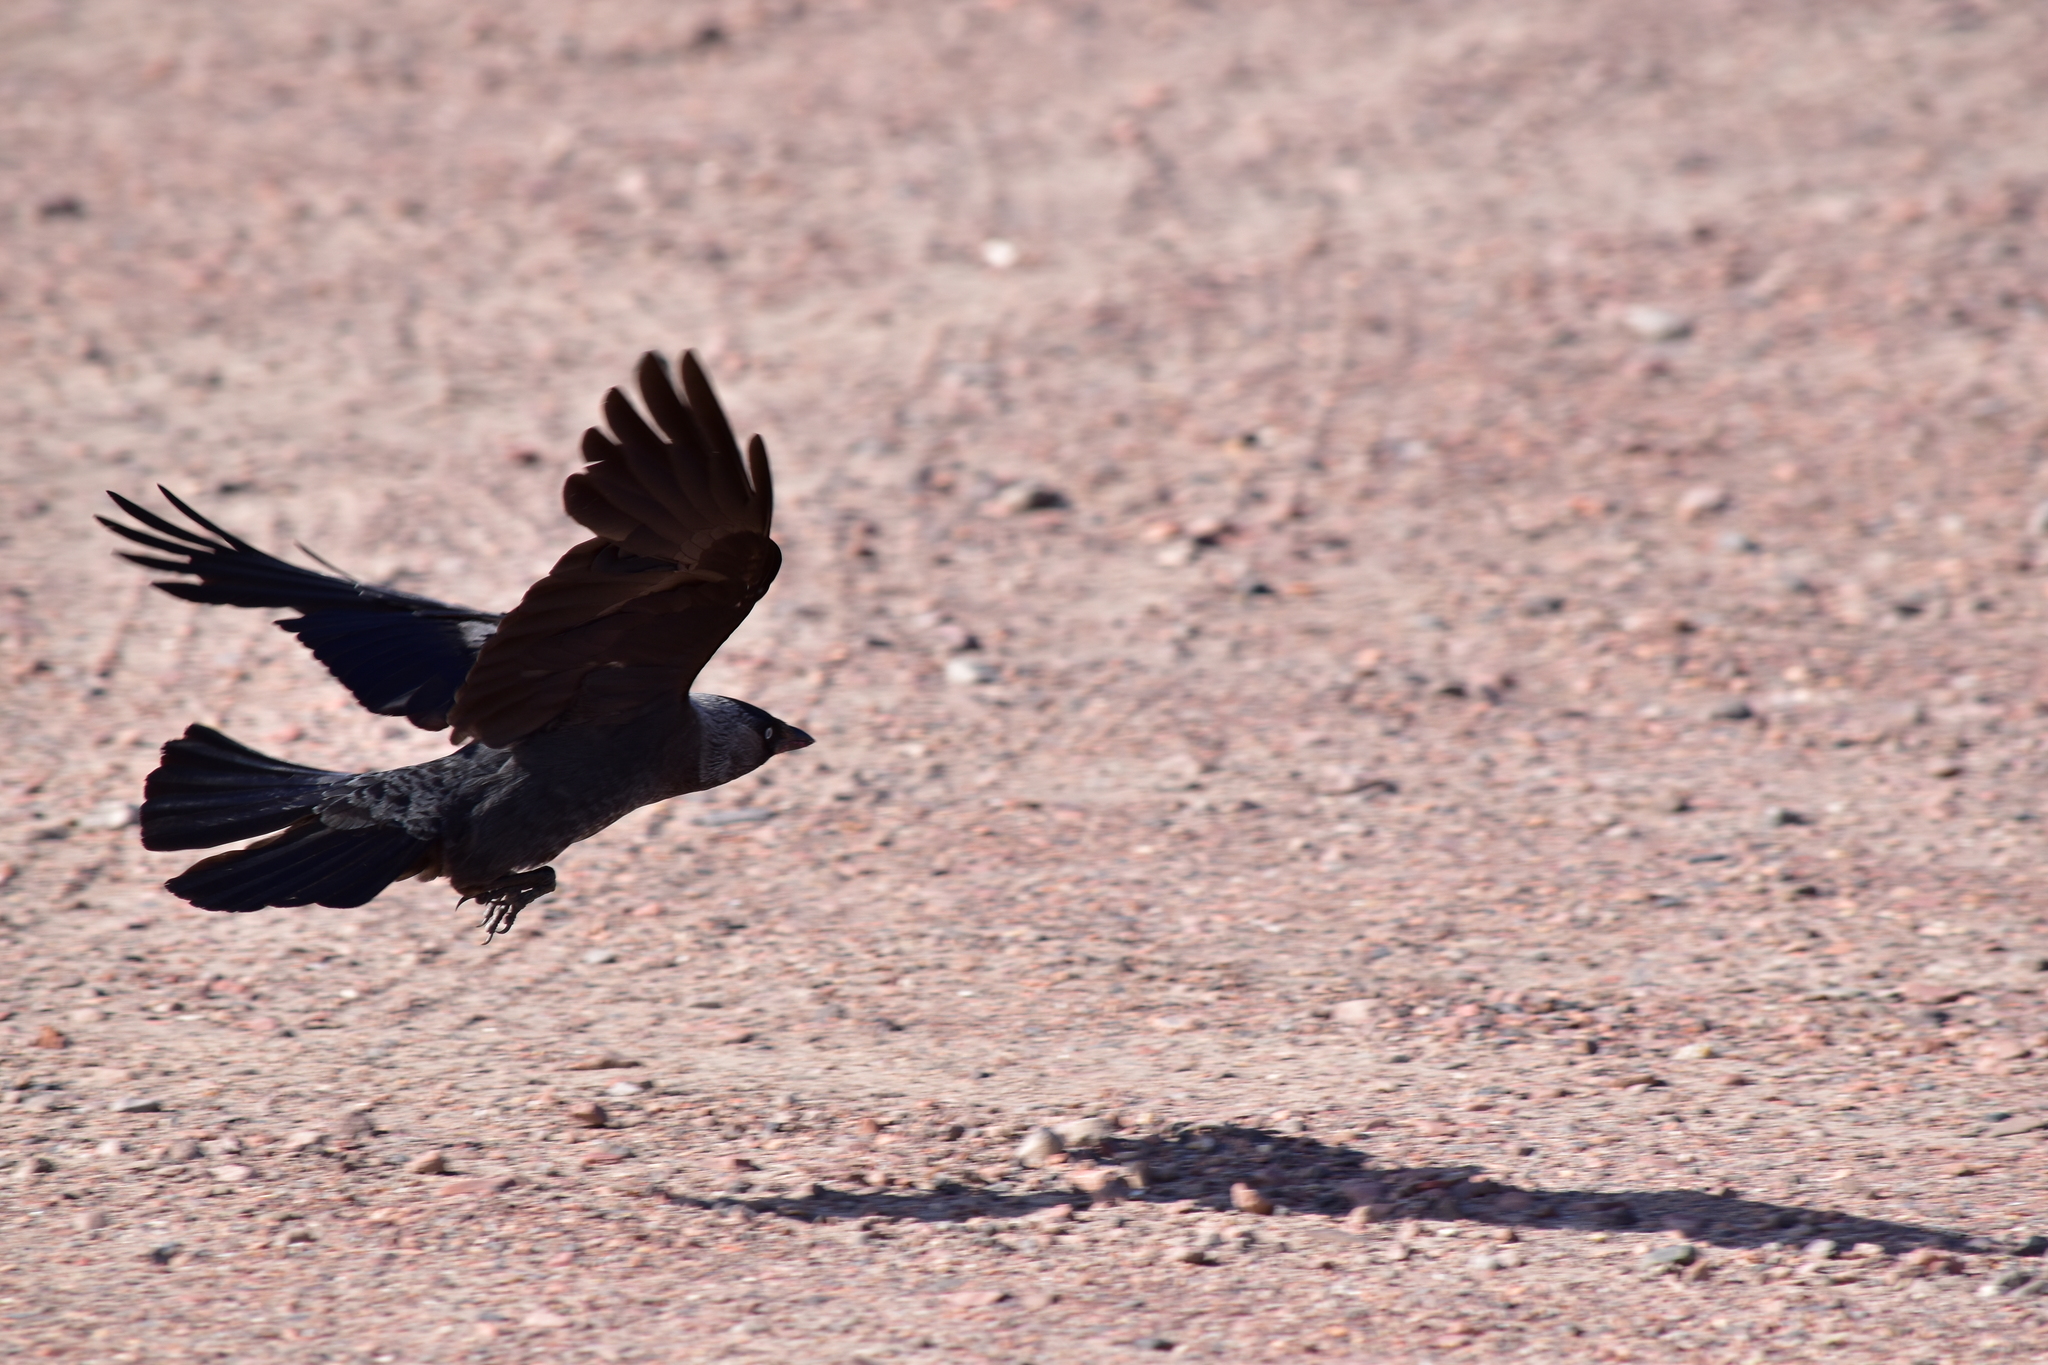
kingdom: Animalia
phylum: Chordata
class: Aves
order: Passeriformes
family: Corvidae
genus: Coloeus
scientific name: Coloeus monedula
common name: Western jackdaw
